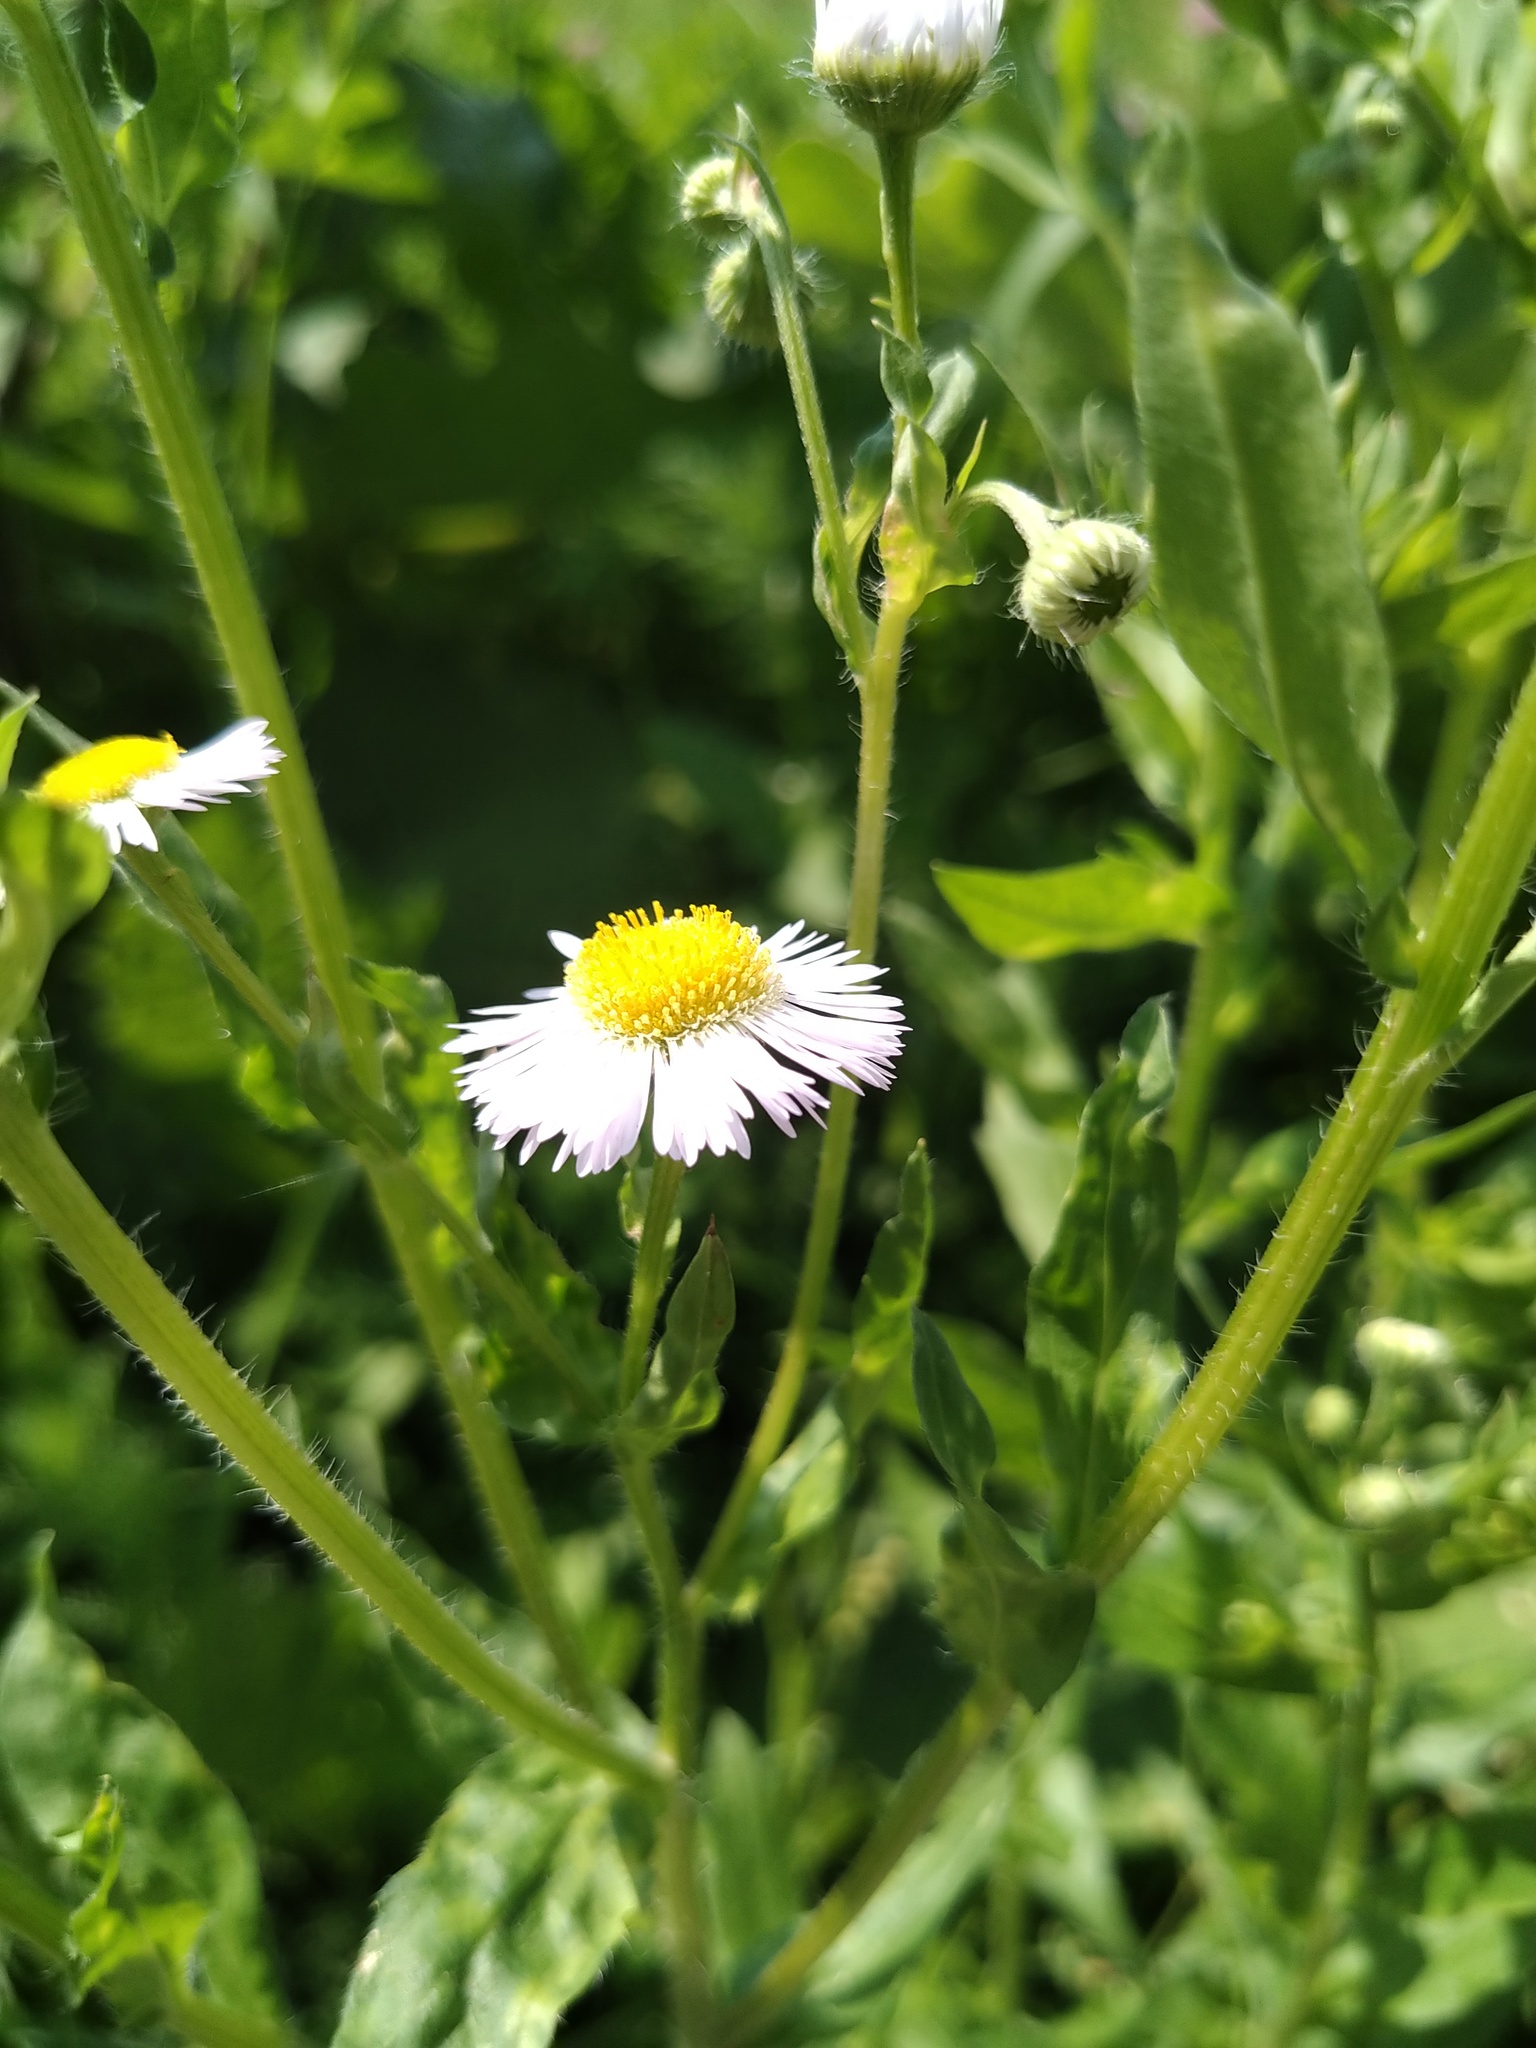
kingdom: Plantae
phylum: Tracheophyta
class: Magnoliopsida
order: Asterales
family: Asteraceae
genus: Erigeron
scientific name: Erigeron annuus
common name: Tall fleabane
